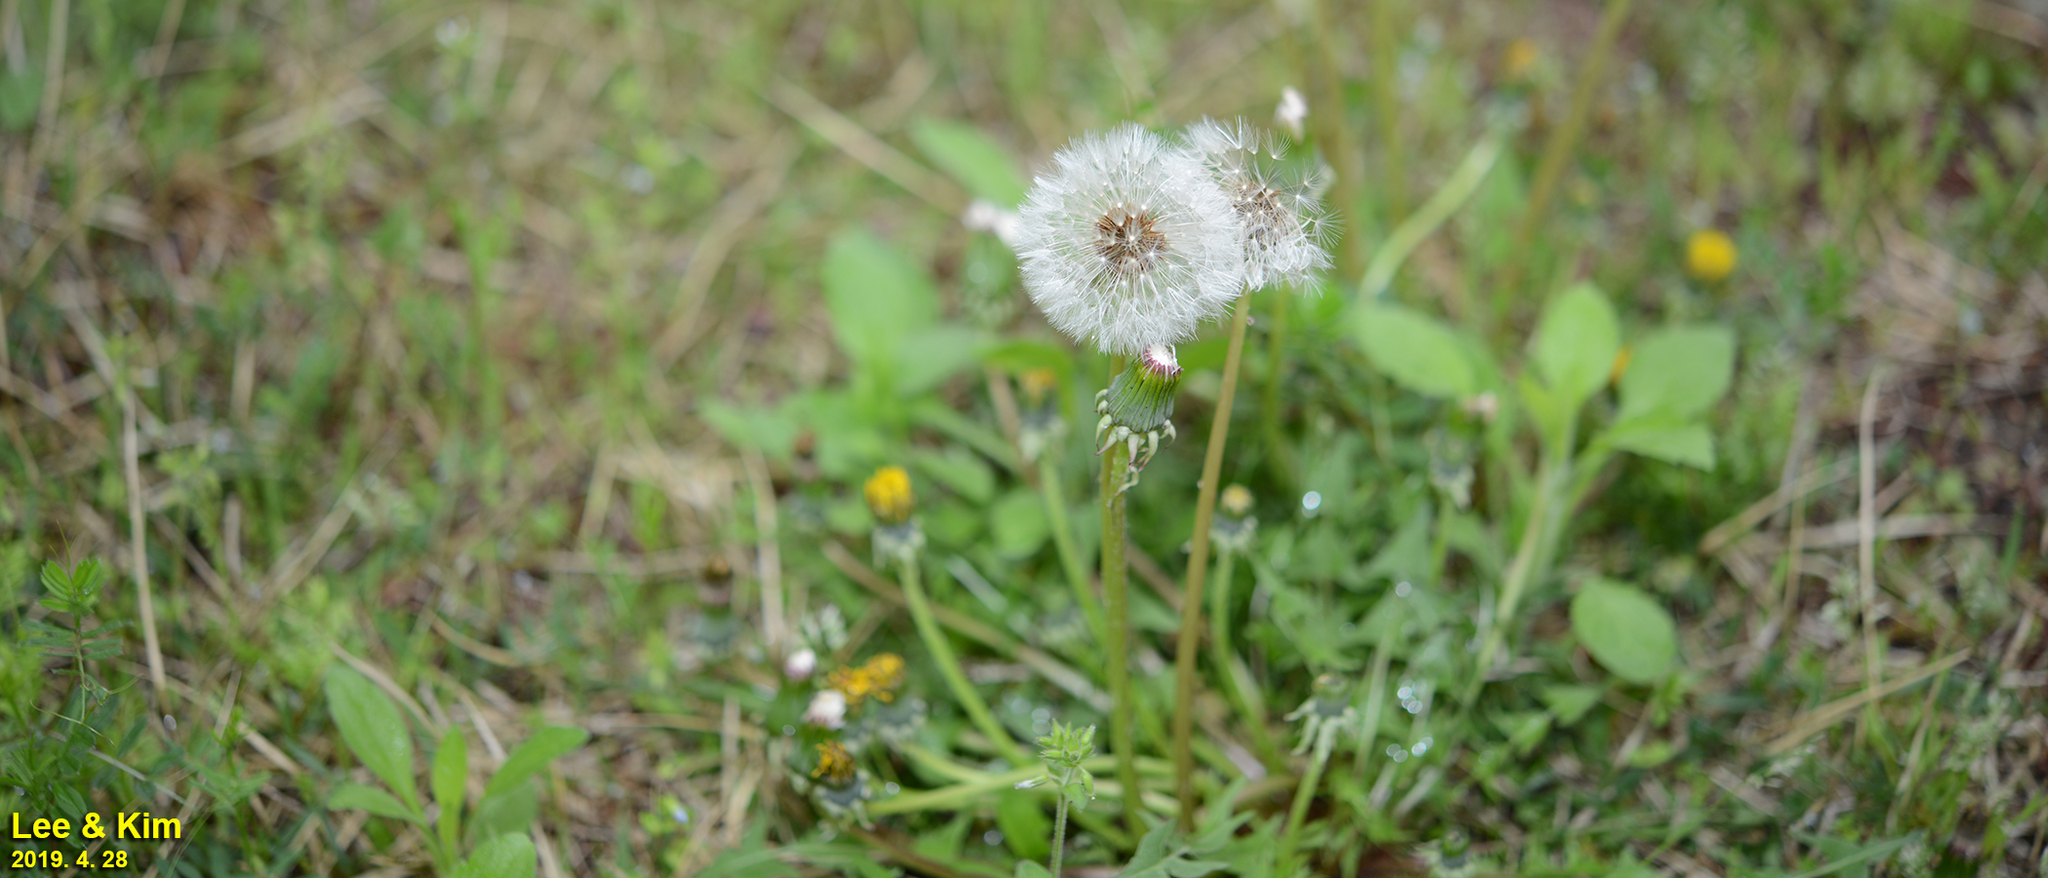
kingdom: Plantae
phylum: Tracheophyta
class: Magnoliopsida
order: Asterales
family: Asteraceae
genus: Taraxacum
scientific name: Taraxacum officinale
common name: Common dandelion
